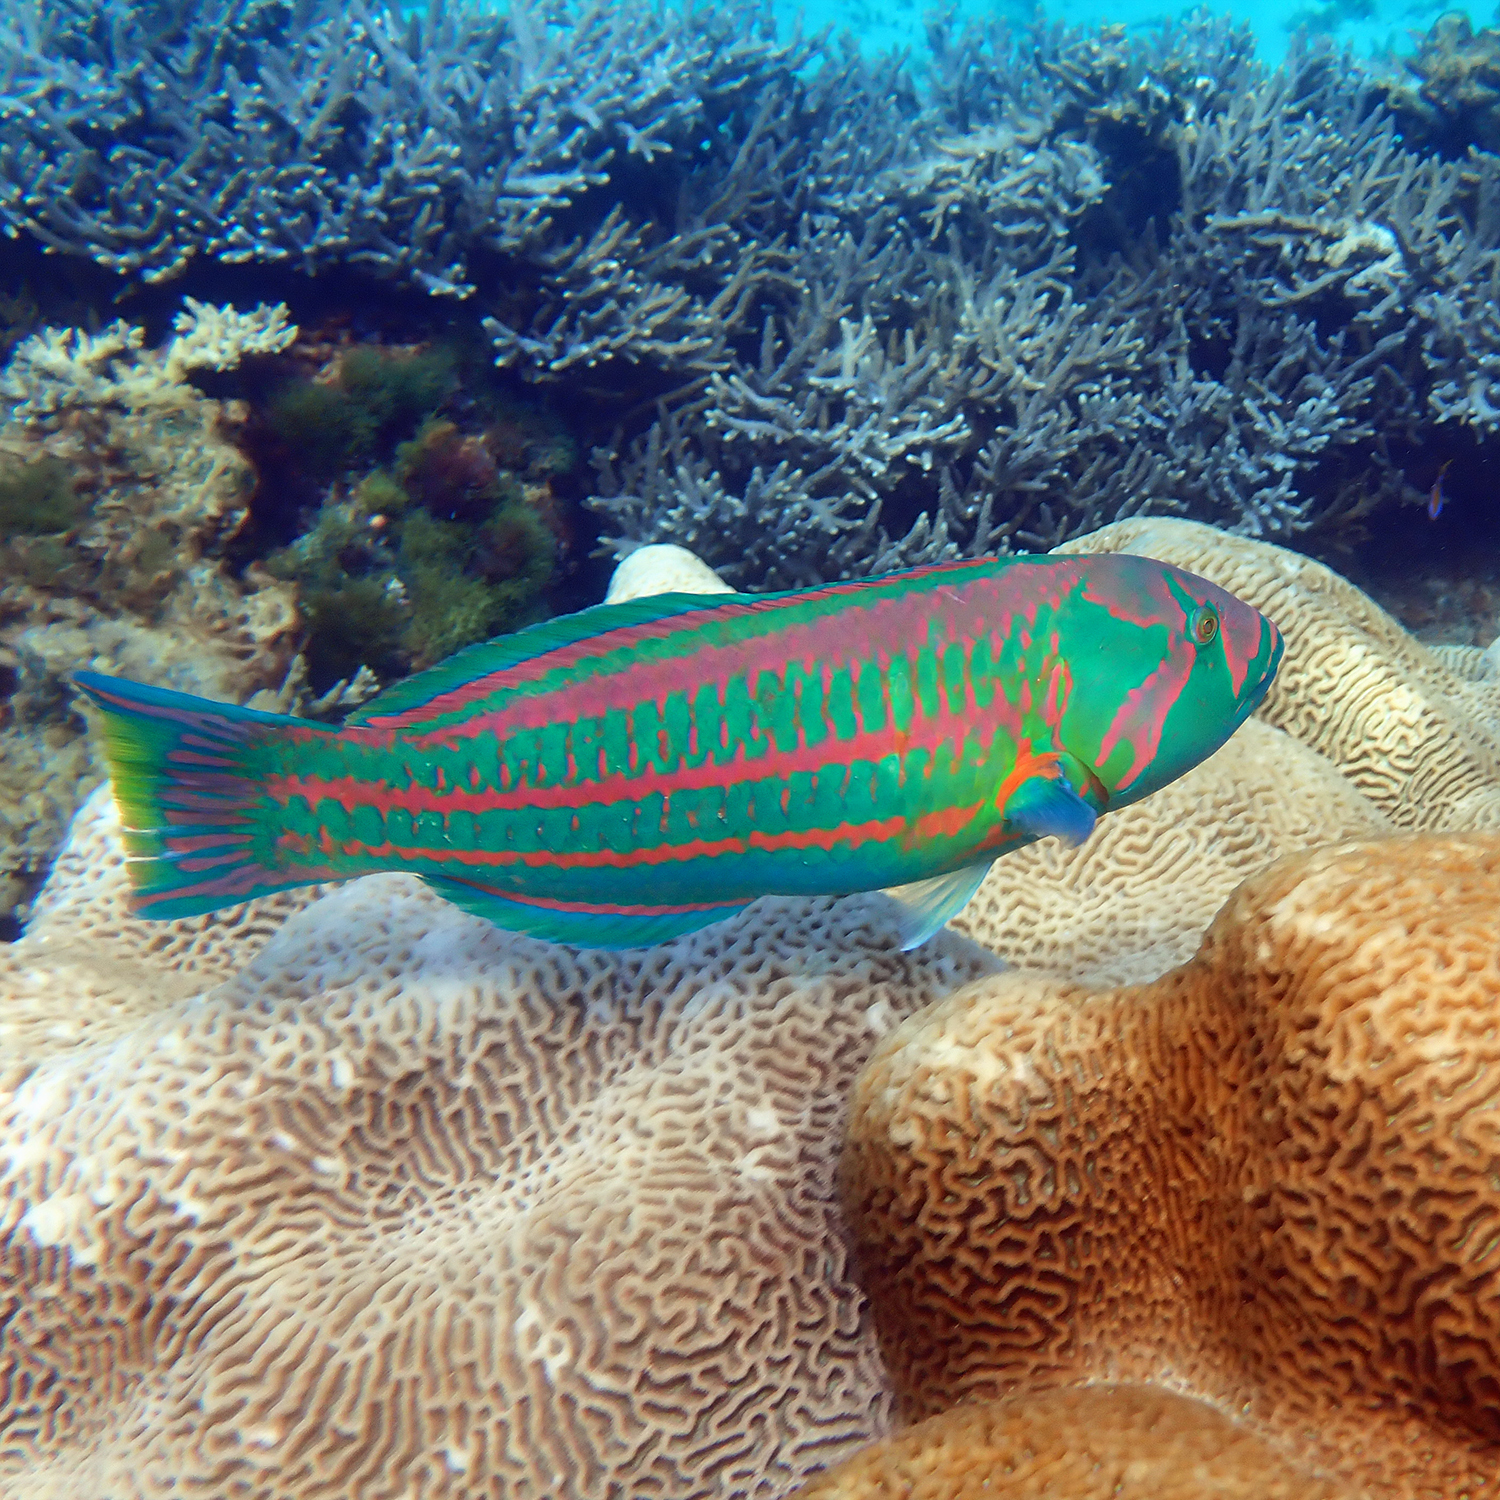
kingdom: Animalia
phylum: Chordata
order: Perciformes
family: Labridae
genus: Thalassoma
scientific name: Thalassoma purpureum
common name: Parrotfish
